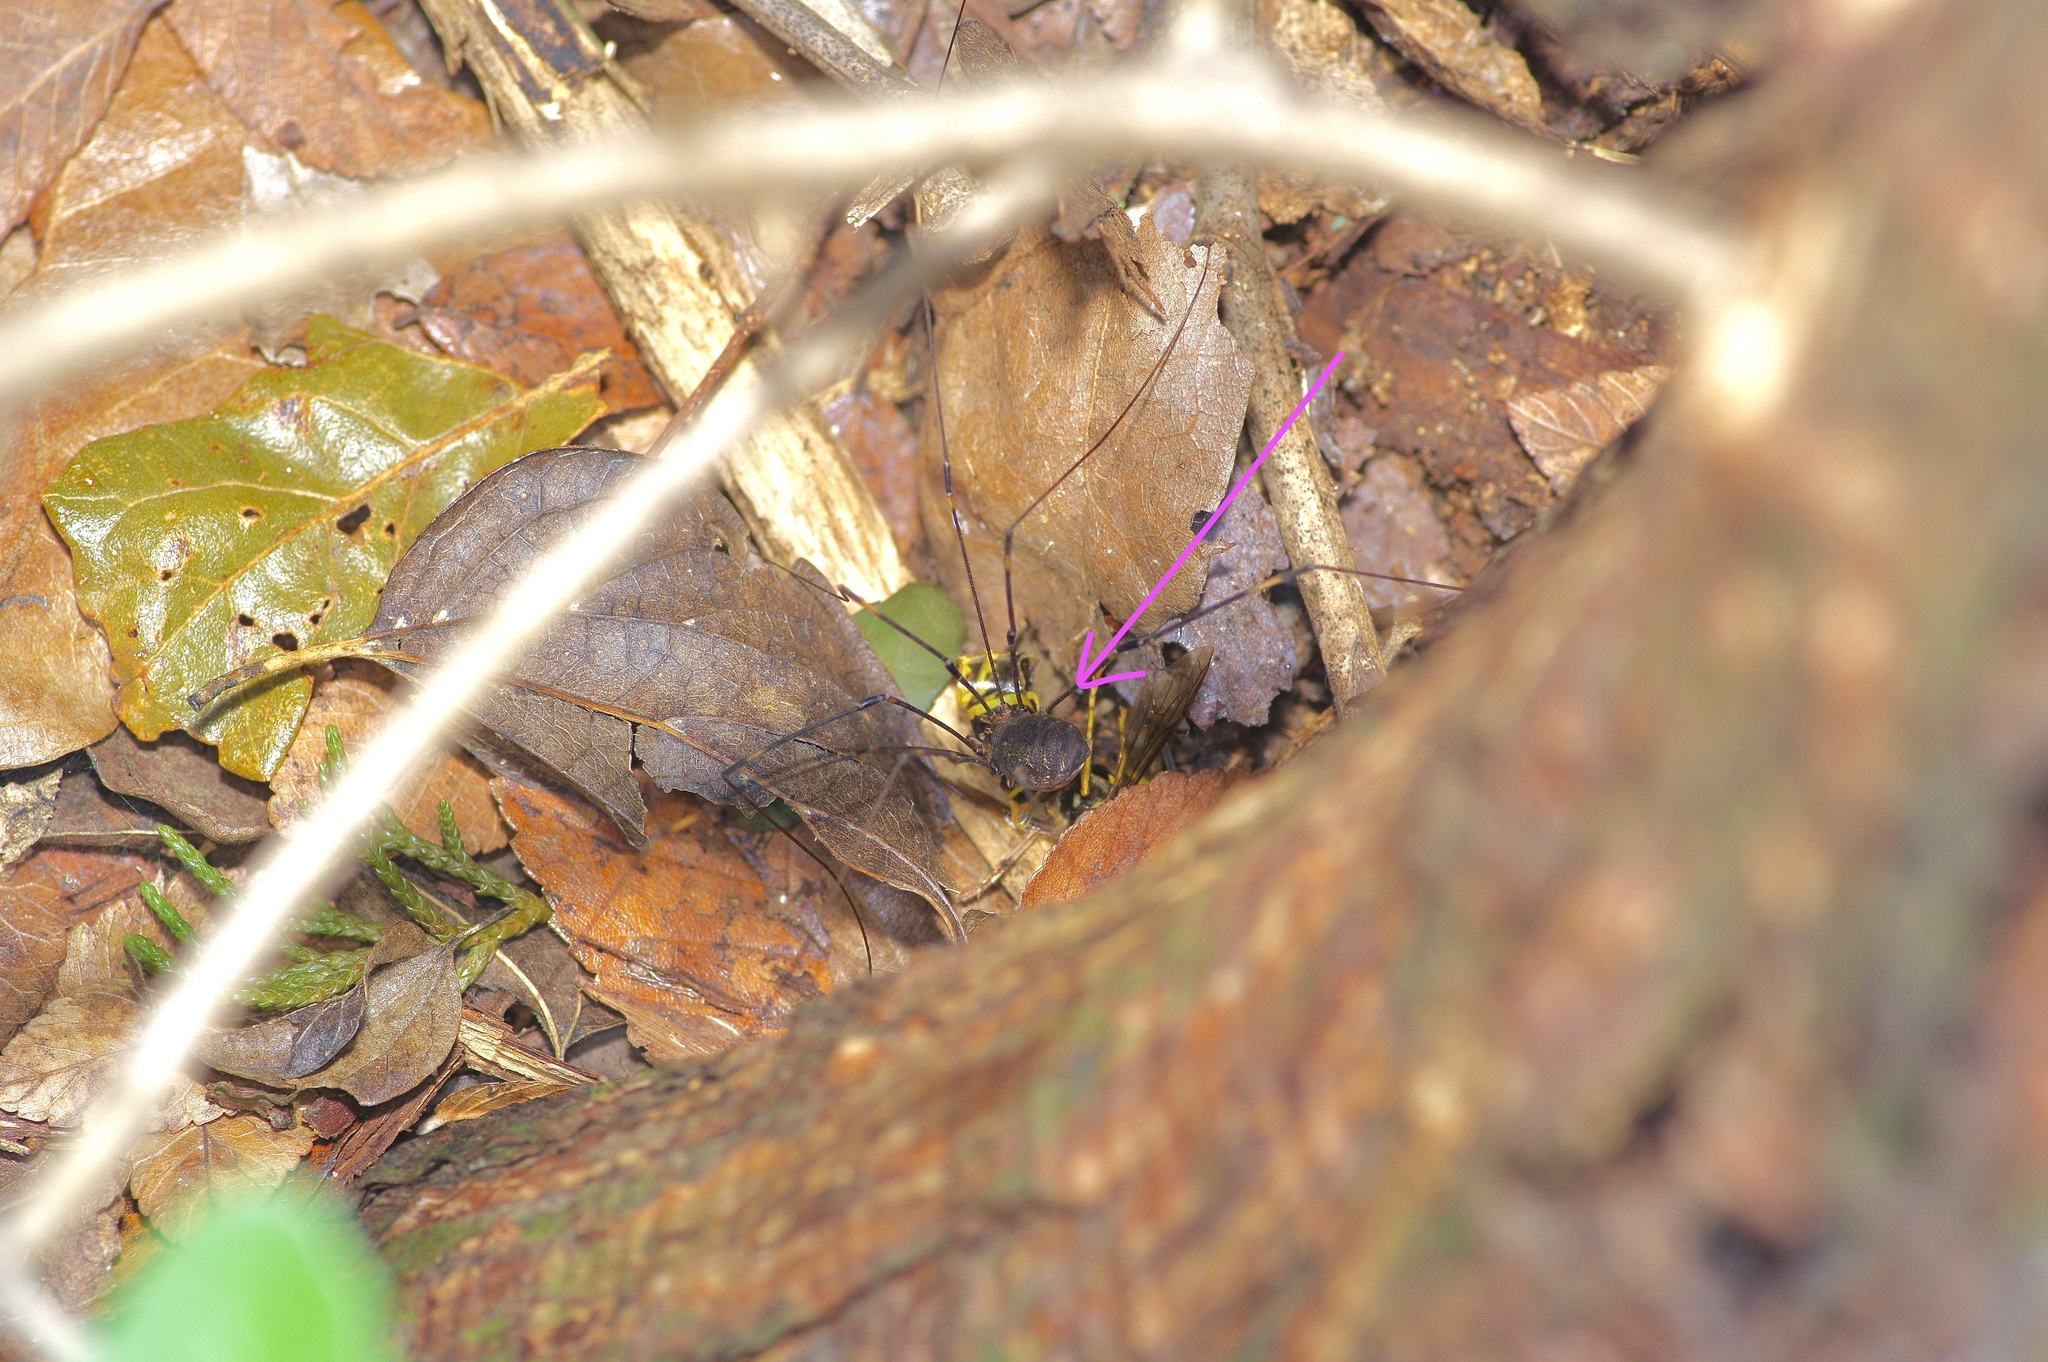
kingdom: Animalia
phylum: Arthropoda
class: Arachnida
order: Opiliones
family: Sclerosomatidae
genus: Leiobunum
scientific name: Leiobunum townsendi
